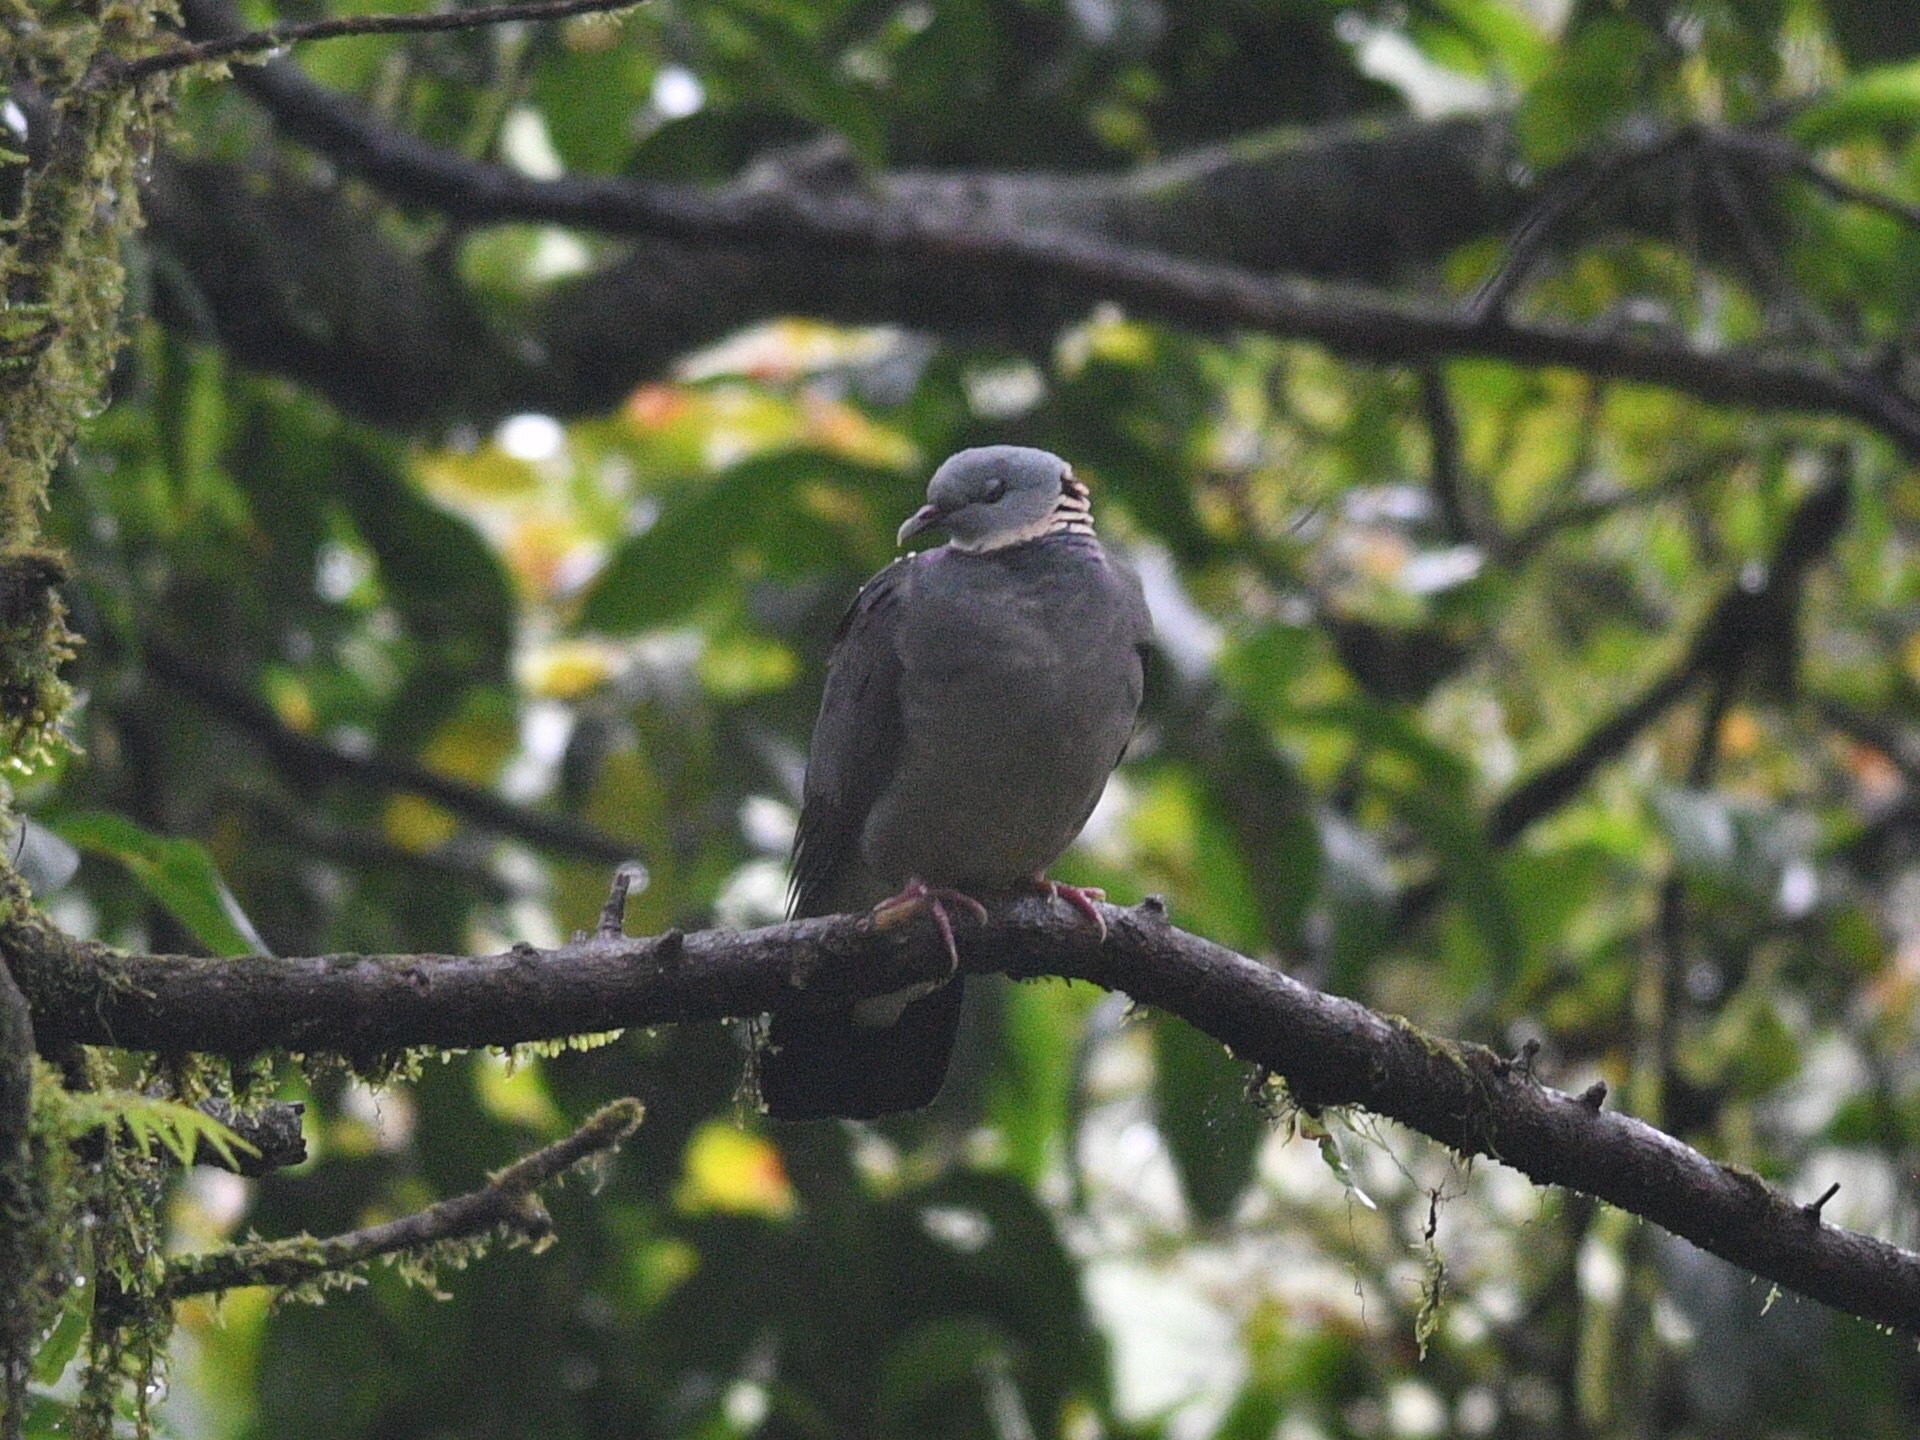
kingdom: Animalia
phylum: Chordata
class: Aves
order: Columbiformes
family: Columbidae
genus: Columba
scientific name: Columba pulchricollis
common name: Ashy wood pigeon
